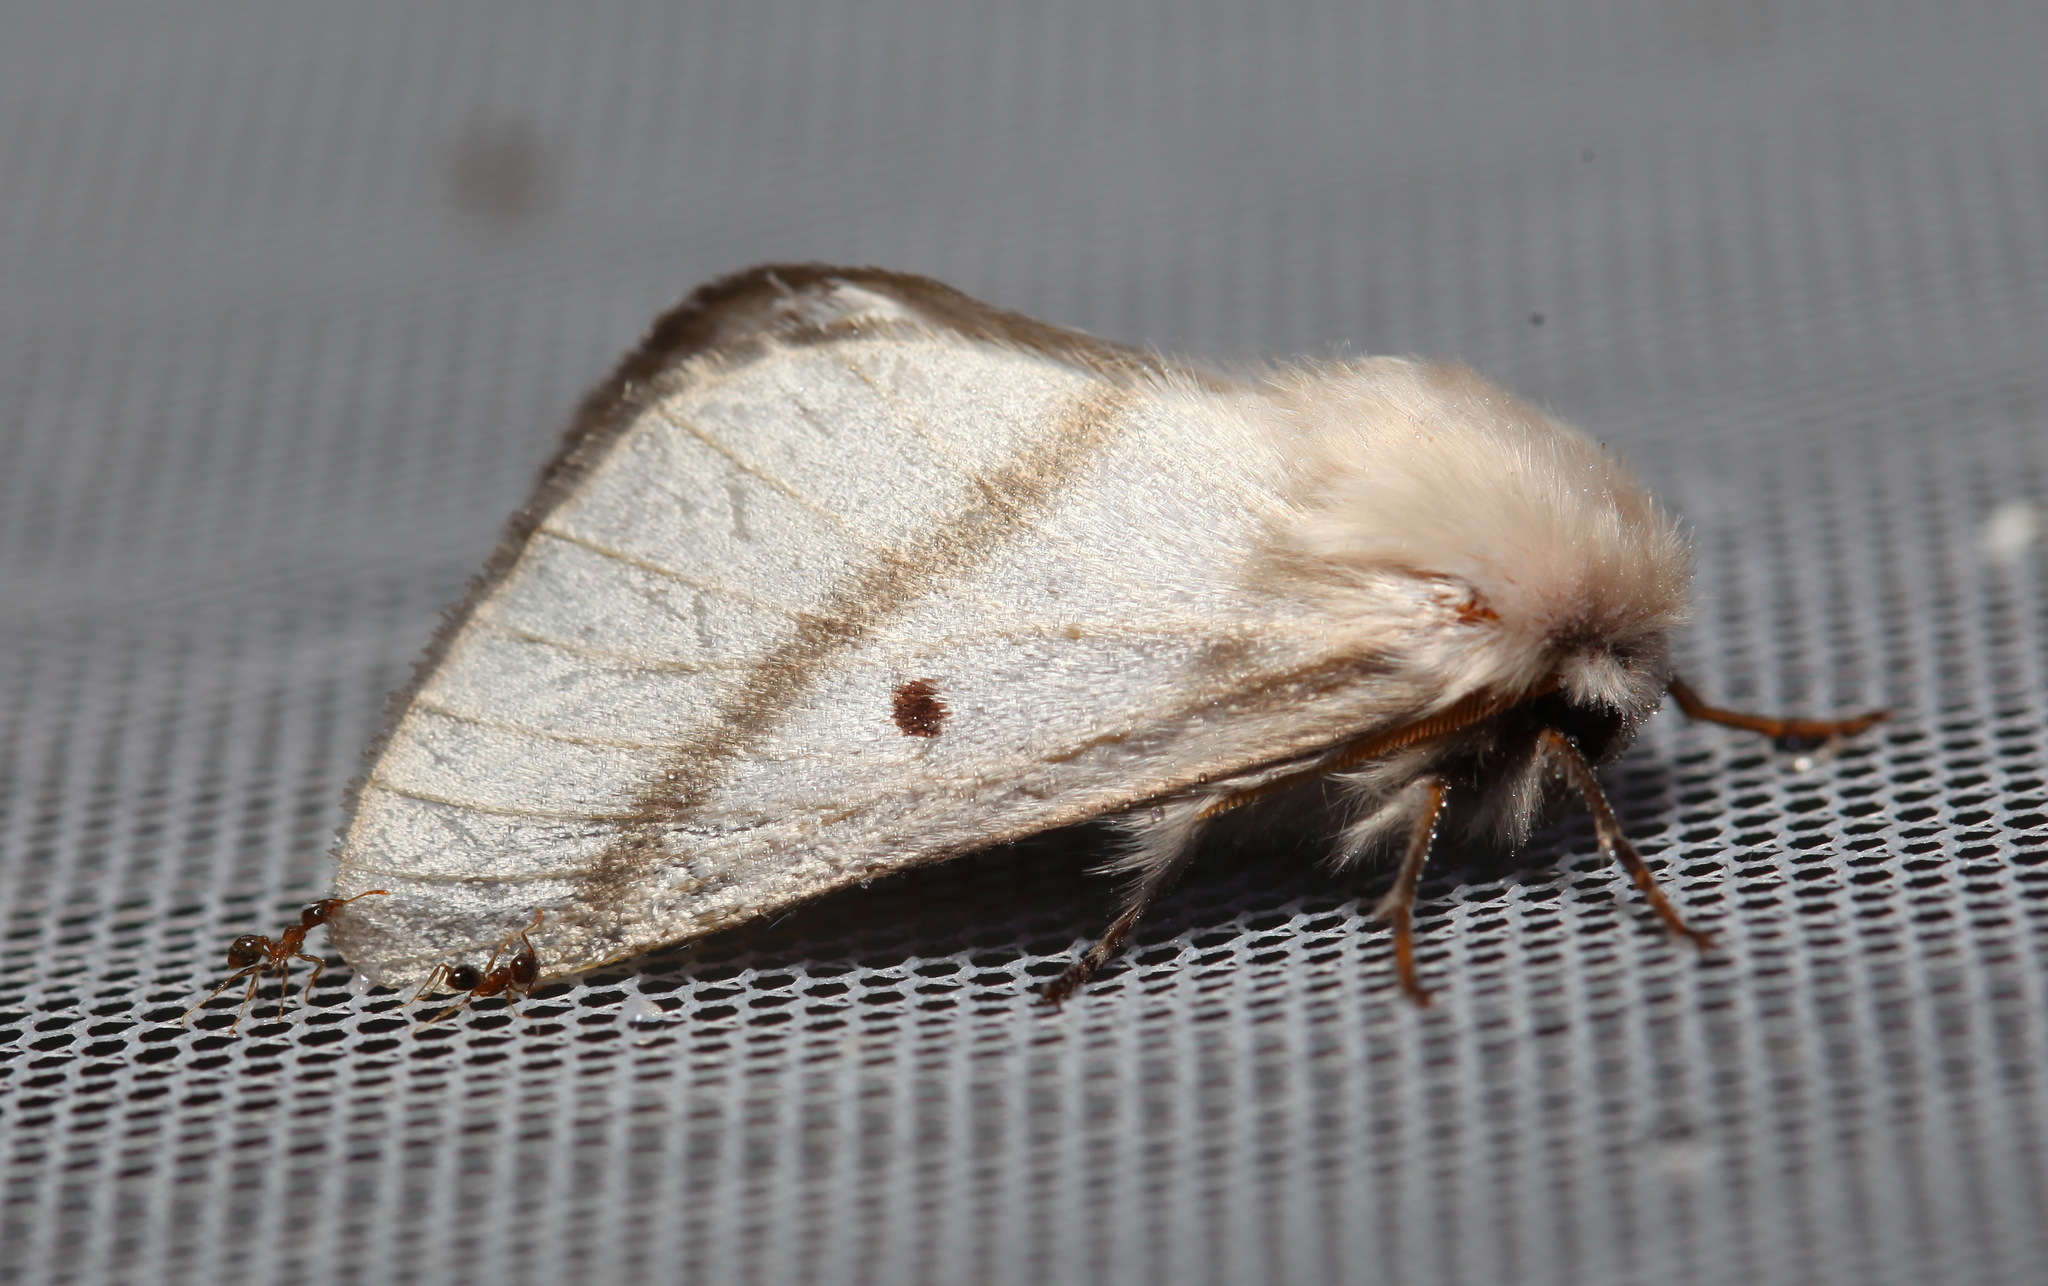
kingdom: Animalia
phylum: Arthropoda
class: Insecta
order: Lepidoptera
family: Lasiocampidae
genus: Bombycomorpha
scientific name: Bombycomorpha bifascia
